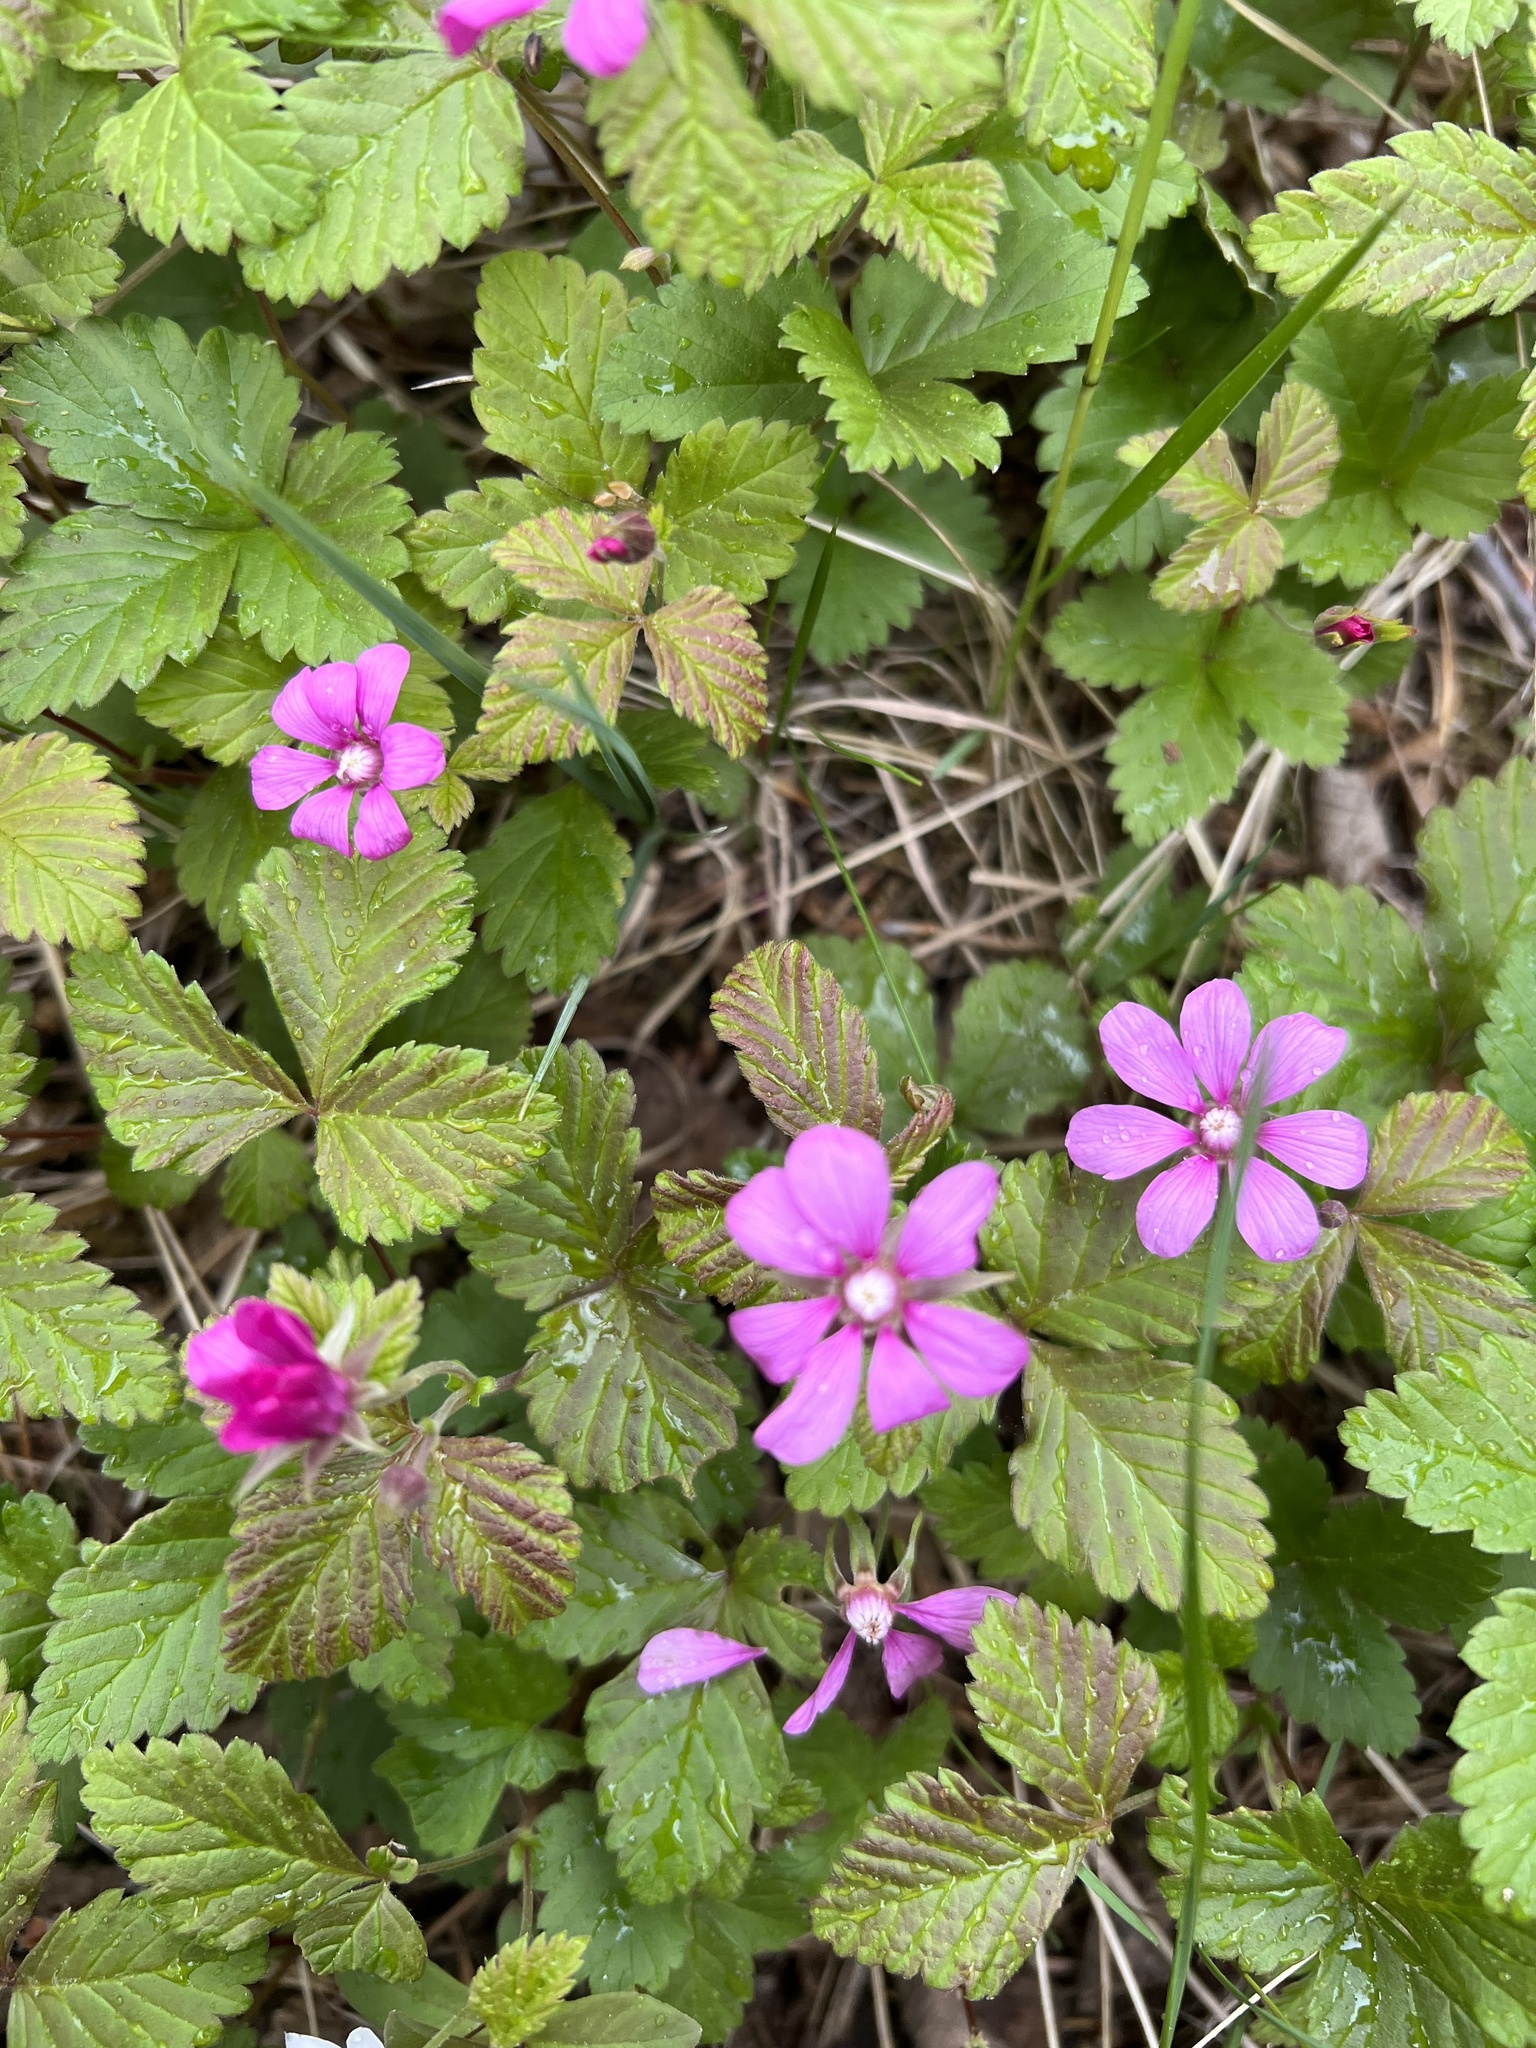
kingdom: Plantae
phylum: Tracheophyta
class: Magnoliopsida
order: Rosales
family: Rosaceae
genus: Rubus
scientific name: Rubus arcticus
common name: Arctic bramble
